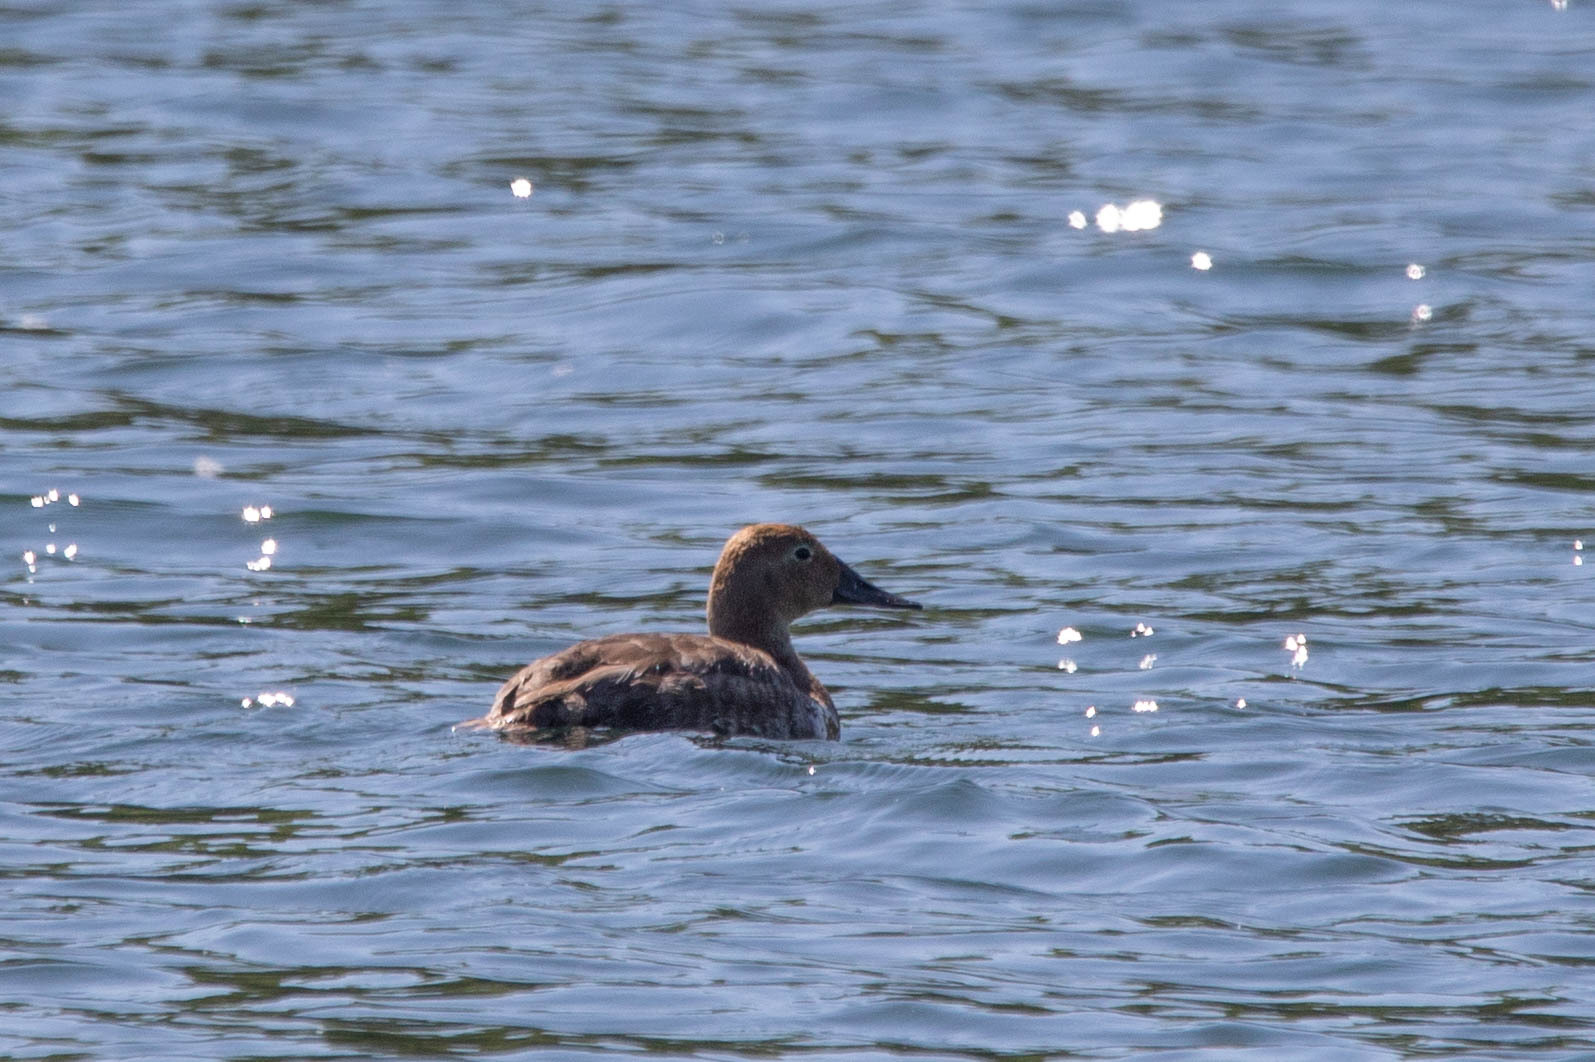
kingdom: Animalia
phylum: Chordata
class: Aves
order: Anseriformes
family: Anatidae
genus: Aythya
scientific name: Aythya valisineria
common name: Canvasback
